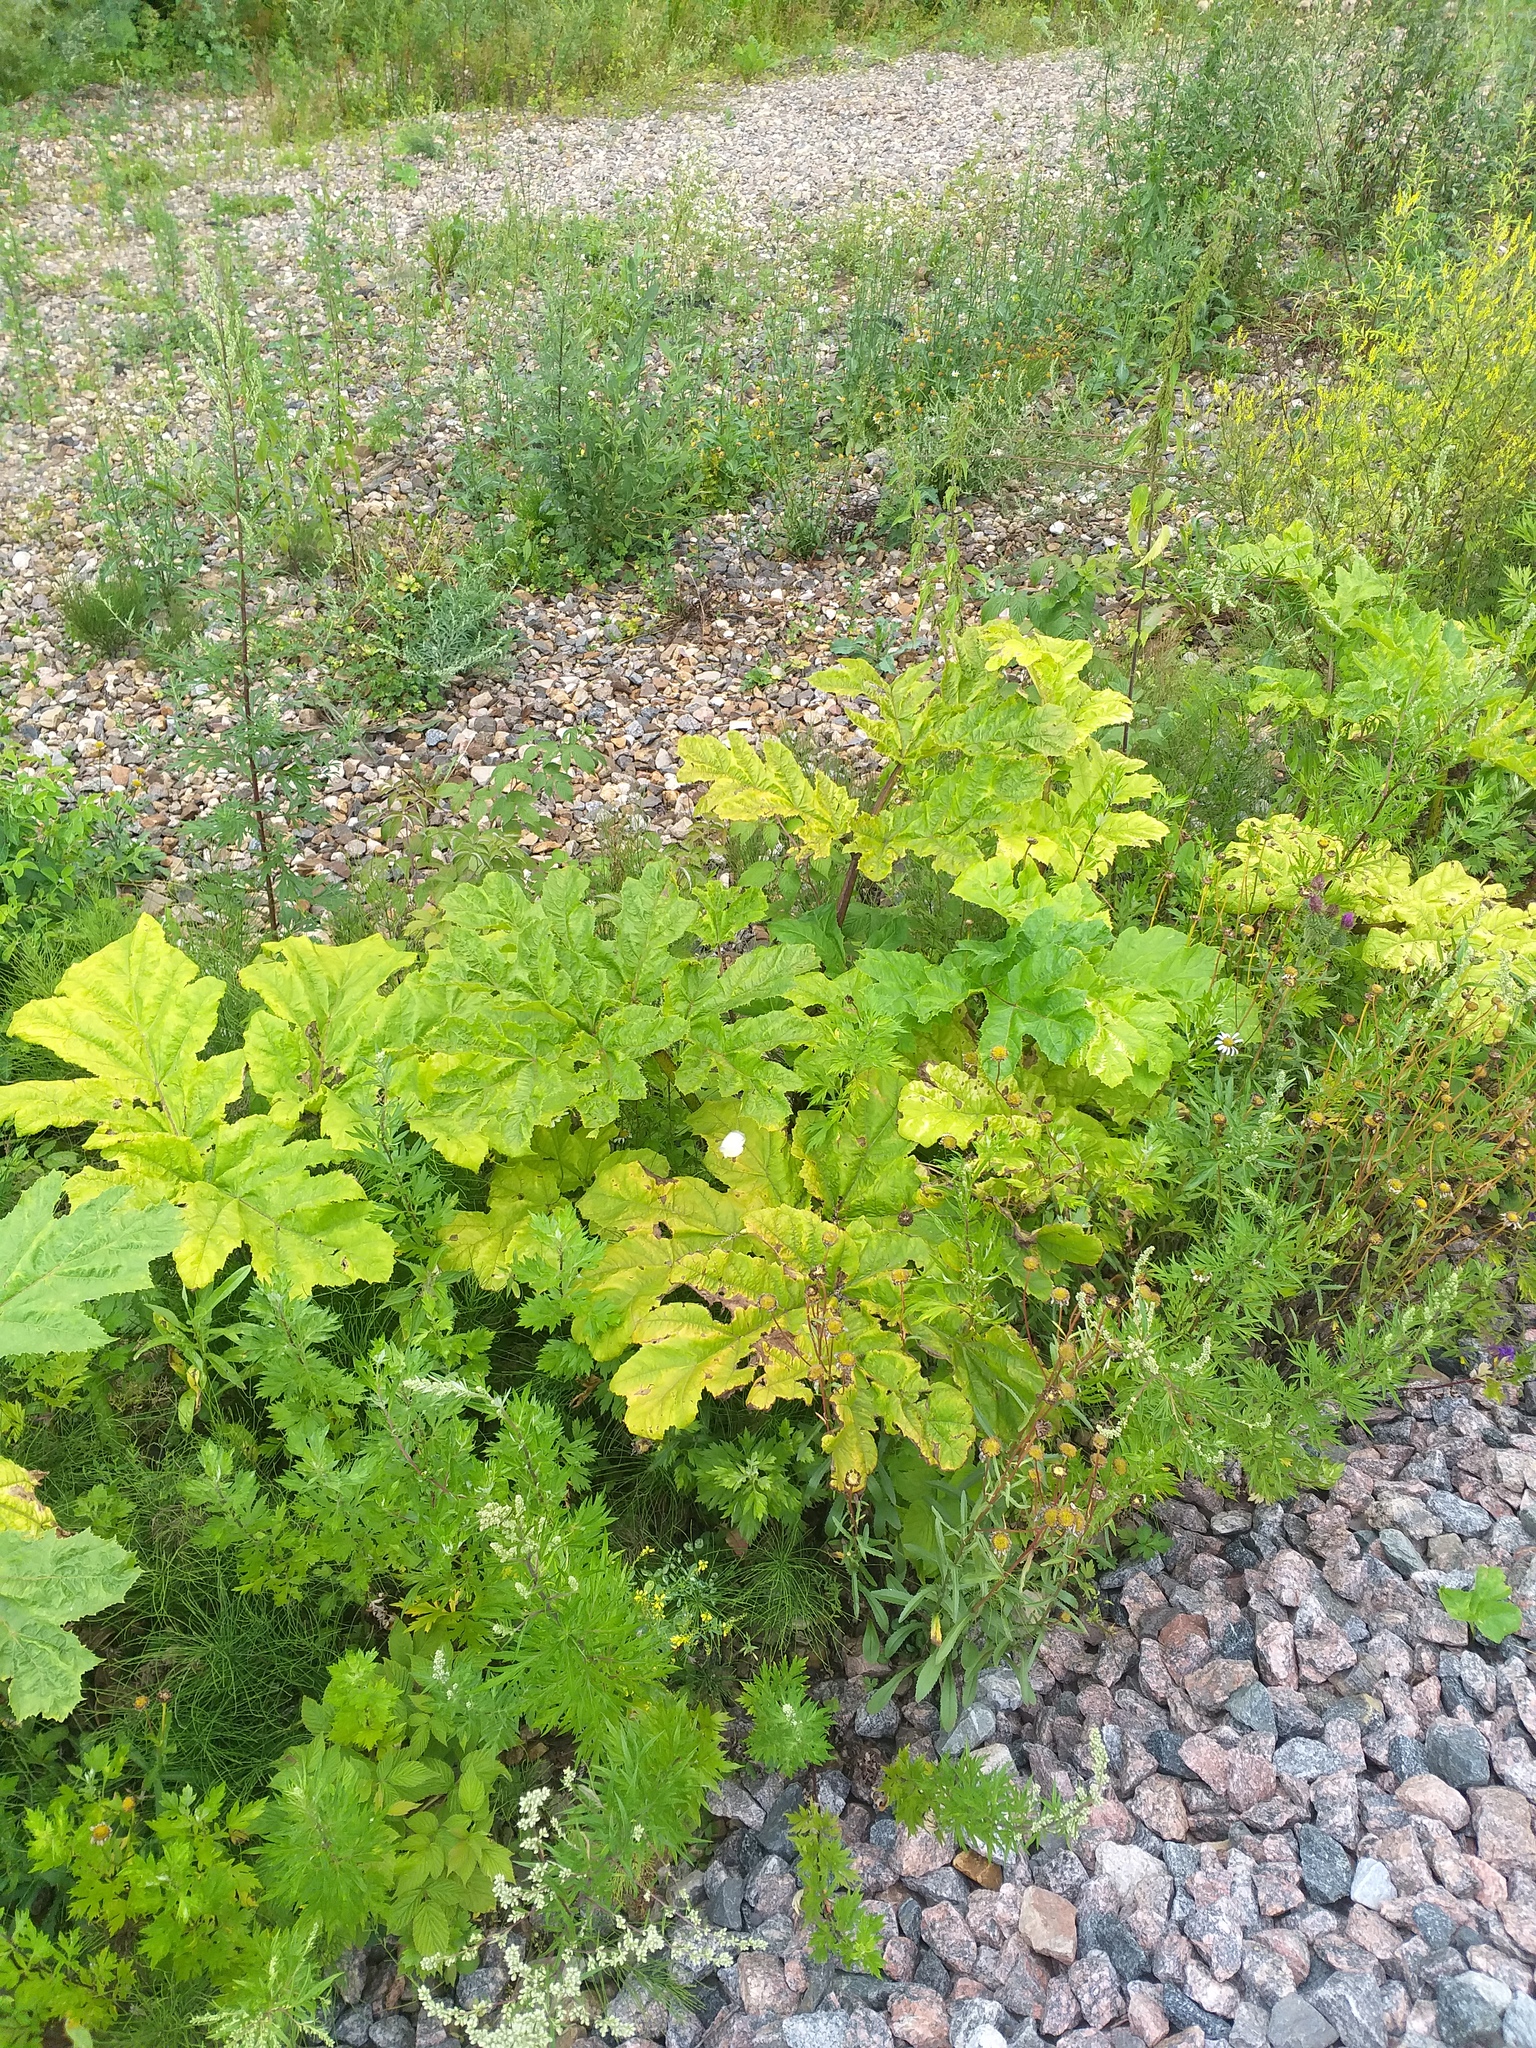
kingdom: Plantae
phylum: Tracheophyta
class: Magnoliopsida
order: Apiales
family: Apiaceae
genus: Heracleum
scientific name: Heracleum sosnowskyi
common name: Sosnowsky's hogweed
